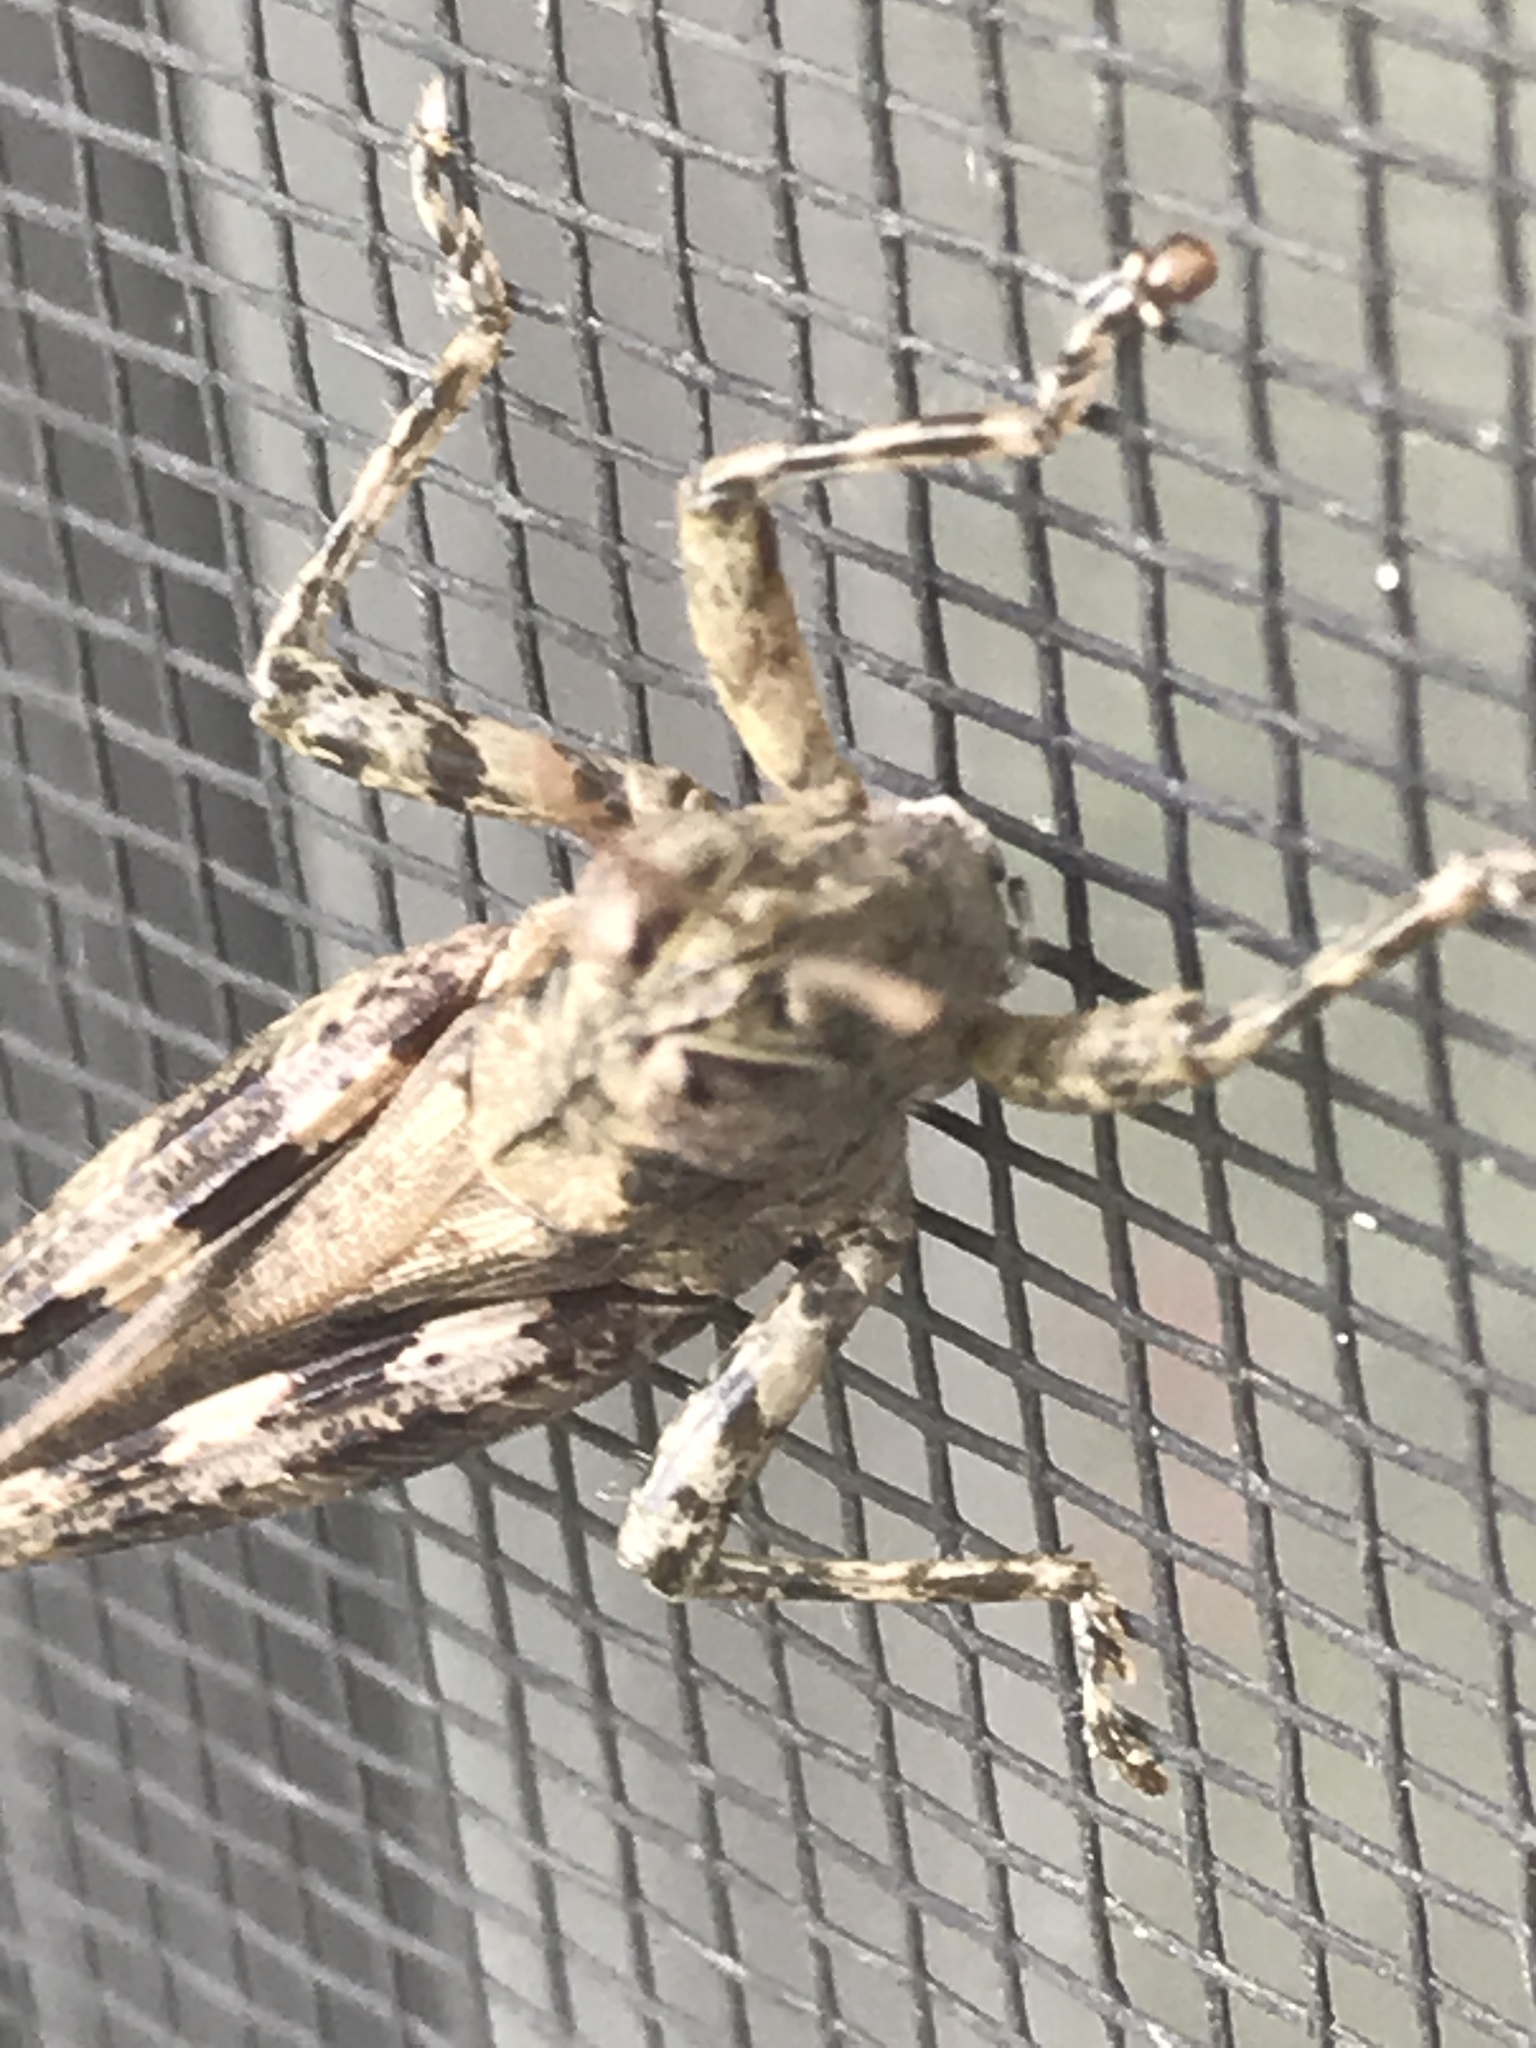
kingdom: Animalia
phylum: Arthropoda
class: Insecta
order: Orthoptera
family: Acrididae
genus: Melanoplus
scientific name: Melanoplus punctulatus
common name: Pine-tree spur-throat grasshopper
